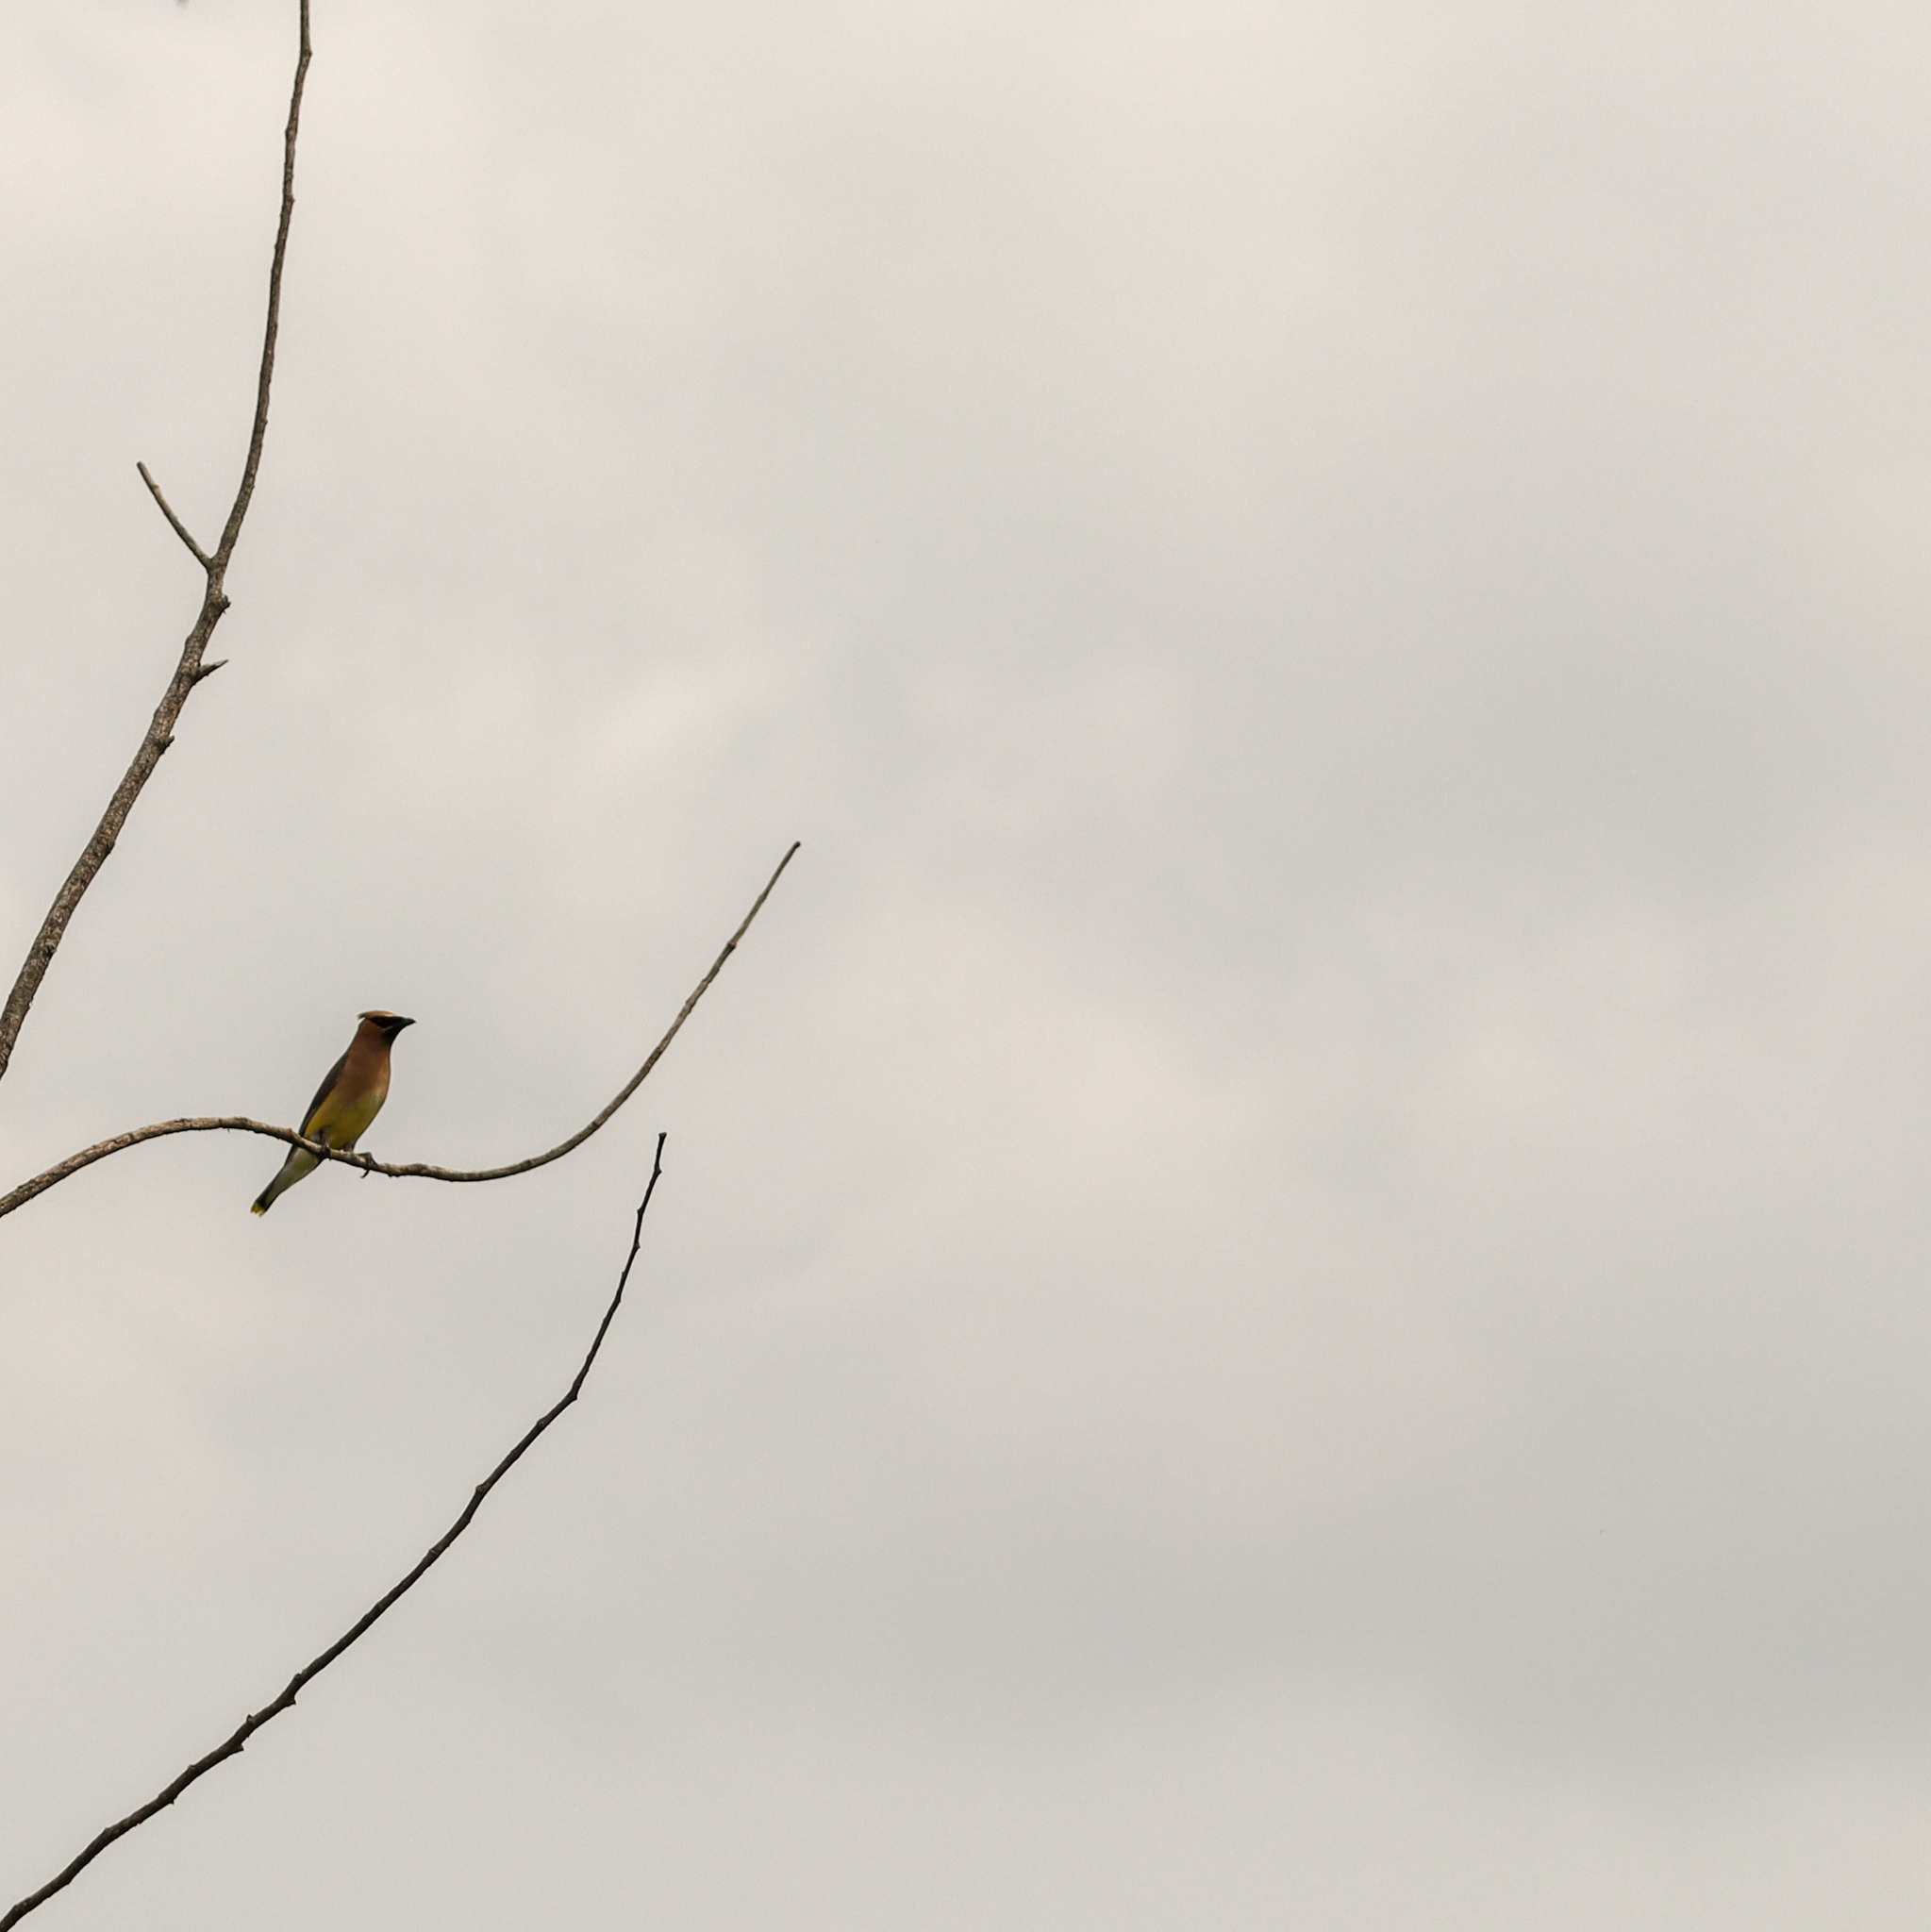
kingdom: Animalia
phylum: Chordata
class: Aves
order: Passeriformes
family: Bombycillidae
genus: Bombycilla
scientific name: Bombycilla cedrorum
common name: Cedar waxwing
